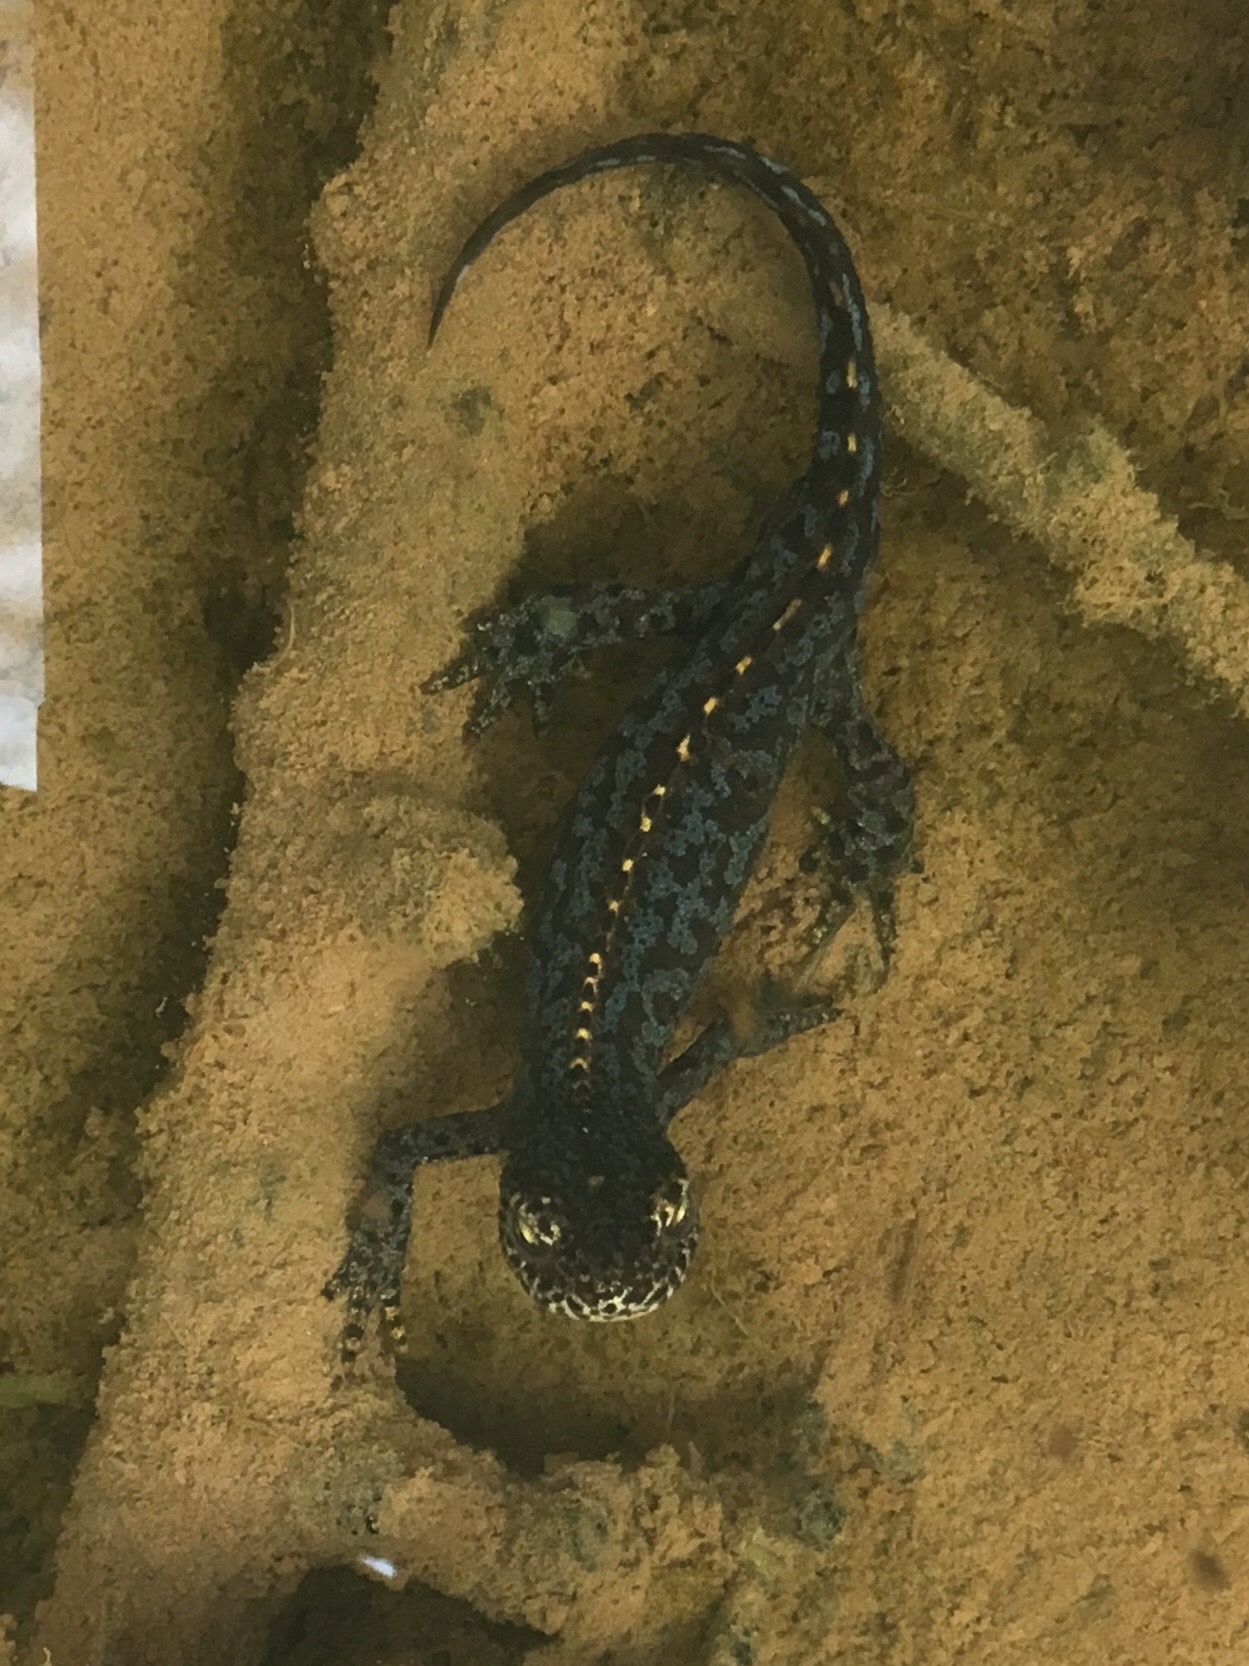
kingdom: Animalia
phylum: Chordata
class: Amphibia
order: Caudata
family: Salamandridae
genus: Ichthyosaura
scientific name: Ichthyosaura alpestris
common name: Alpine newt
